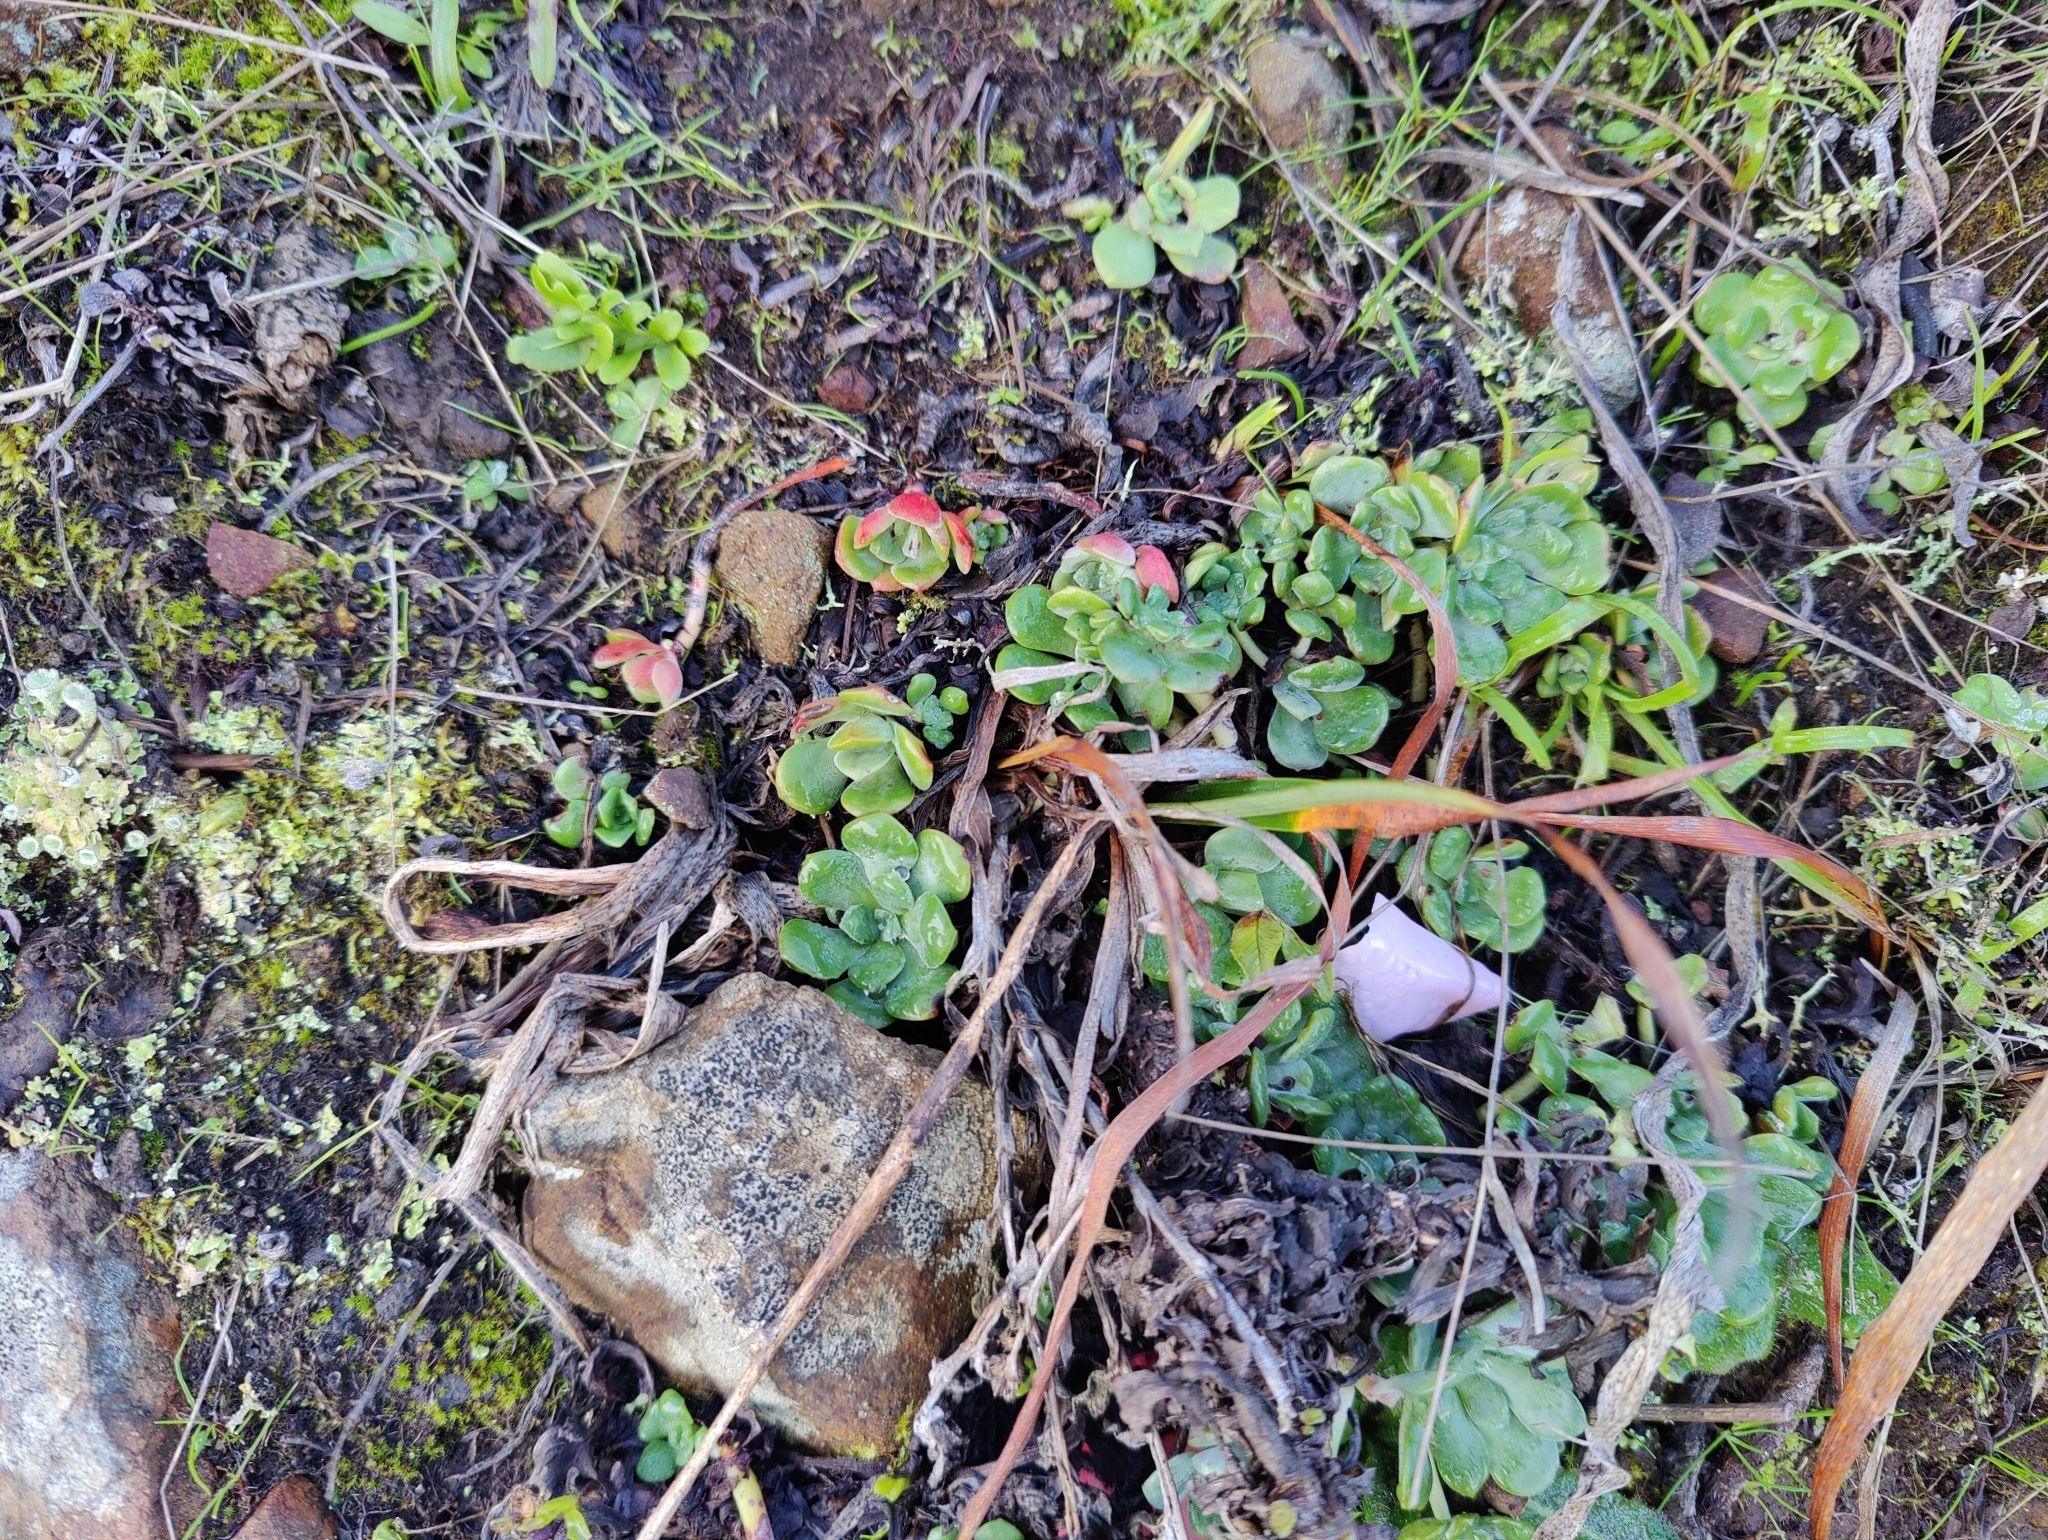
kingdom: Plantae
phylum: Tracheophyta
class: Magnoliopsida
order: Saxifragales
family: Crassulaceae
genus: Sedum
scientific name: Sedum spathulifolium
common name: Colorado stonecrop
